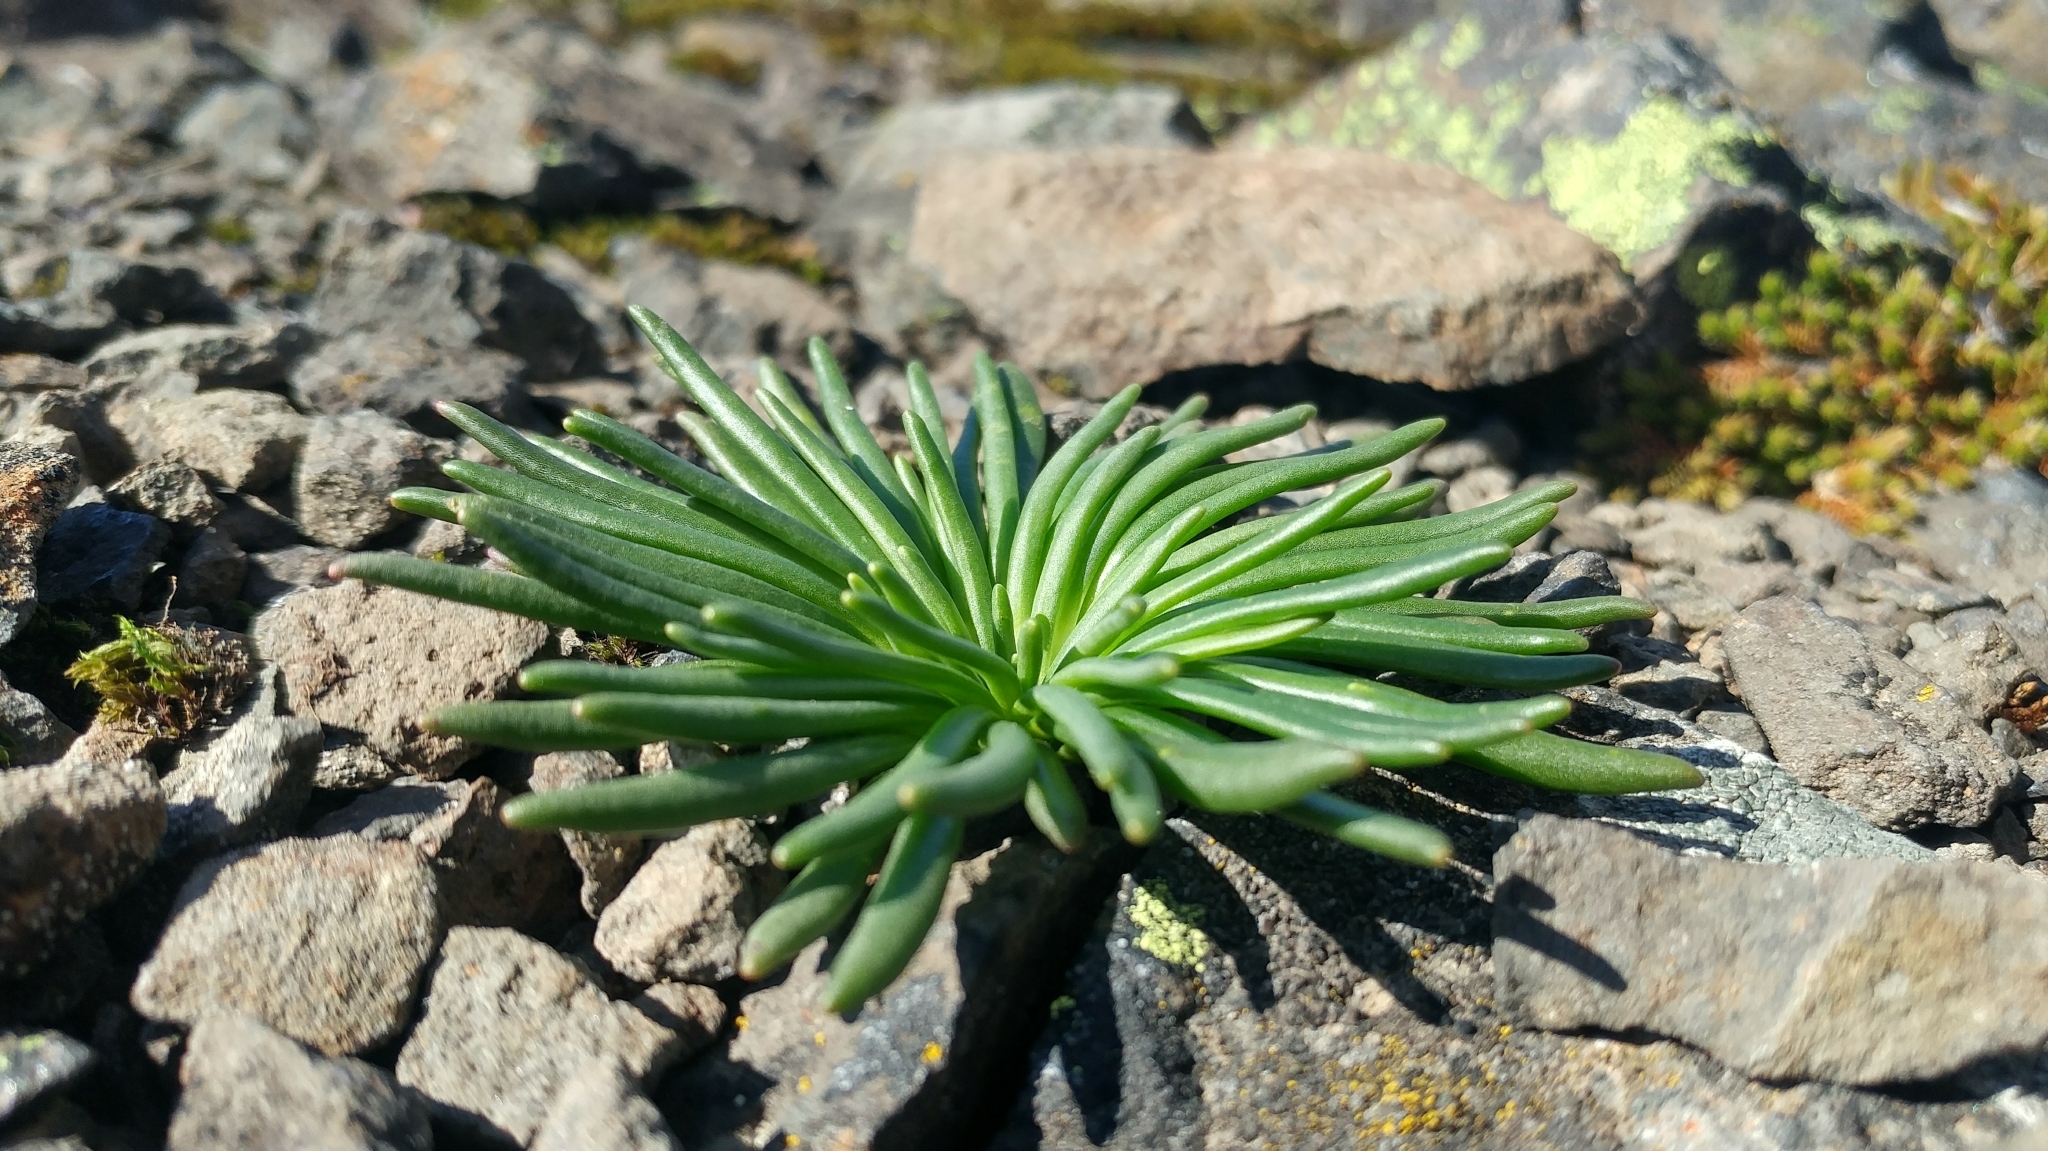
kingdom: Plantae
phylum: Tracheophyta
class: Magnoliopsida
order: Caryophyllales
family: Montiaceae
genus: Lewisia
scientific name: Lewisia rediviva
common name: Bitter-root
